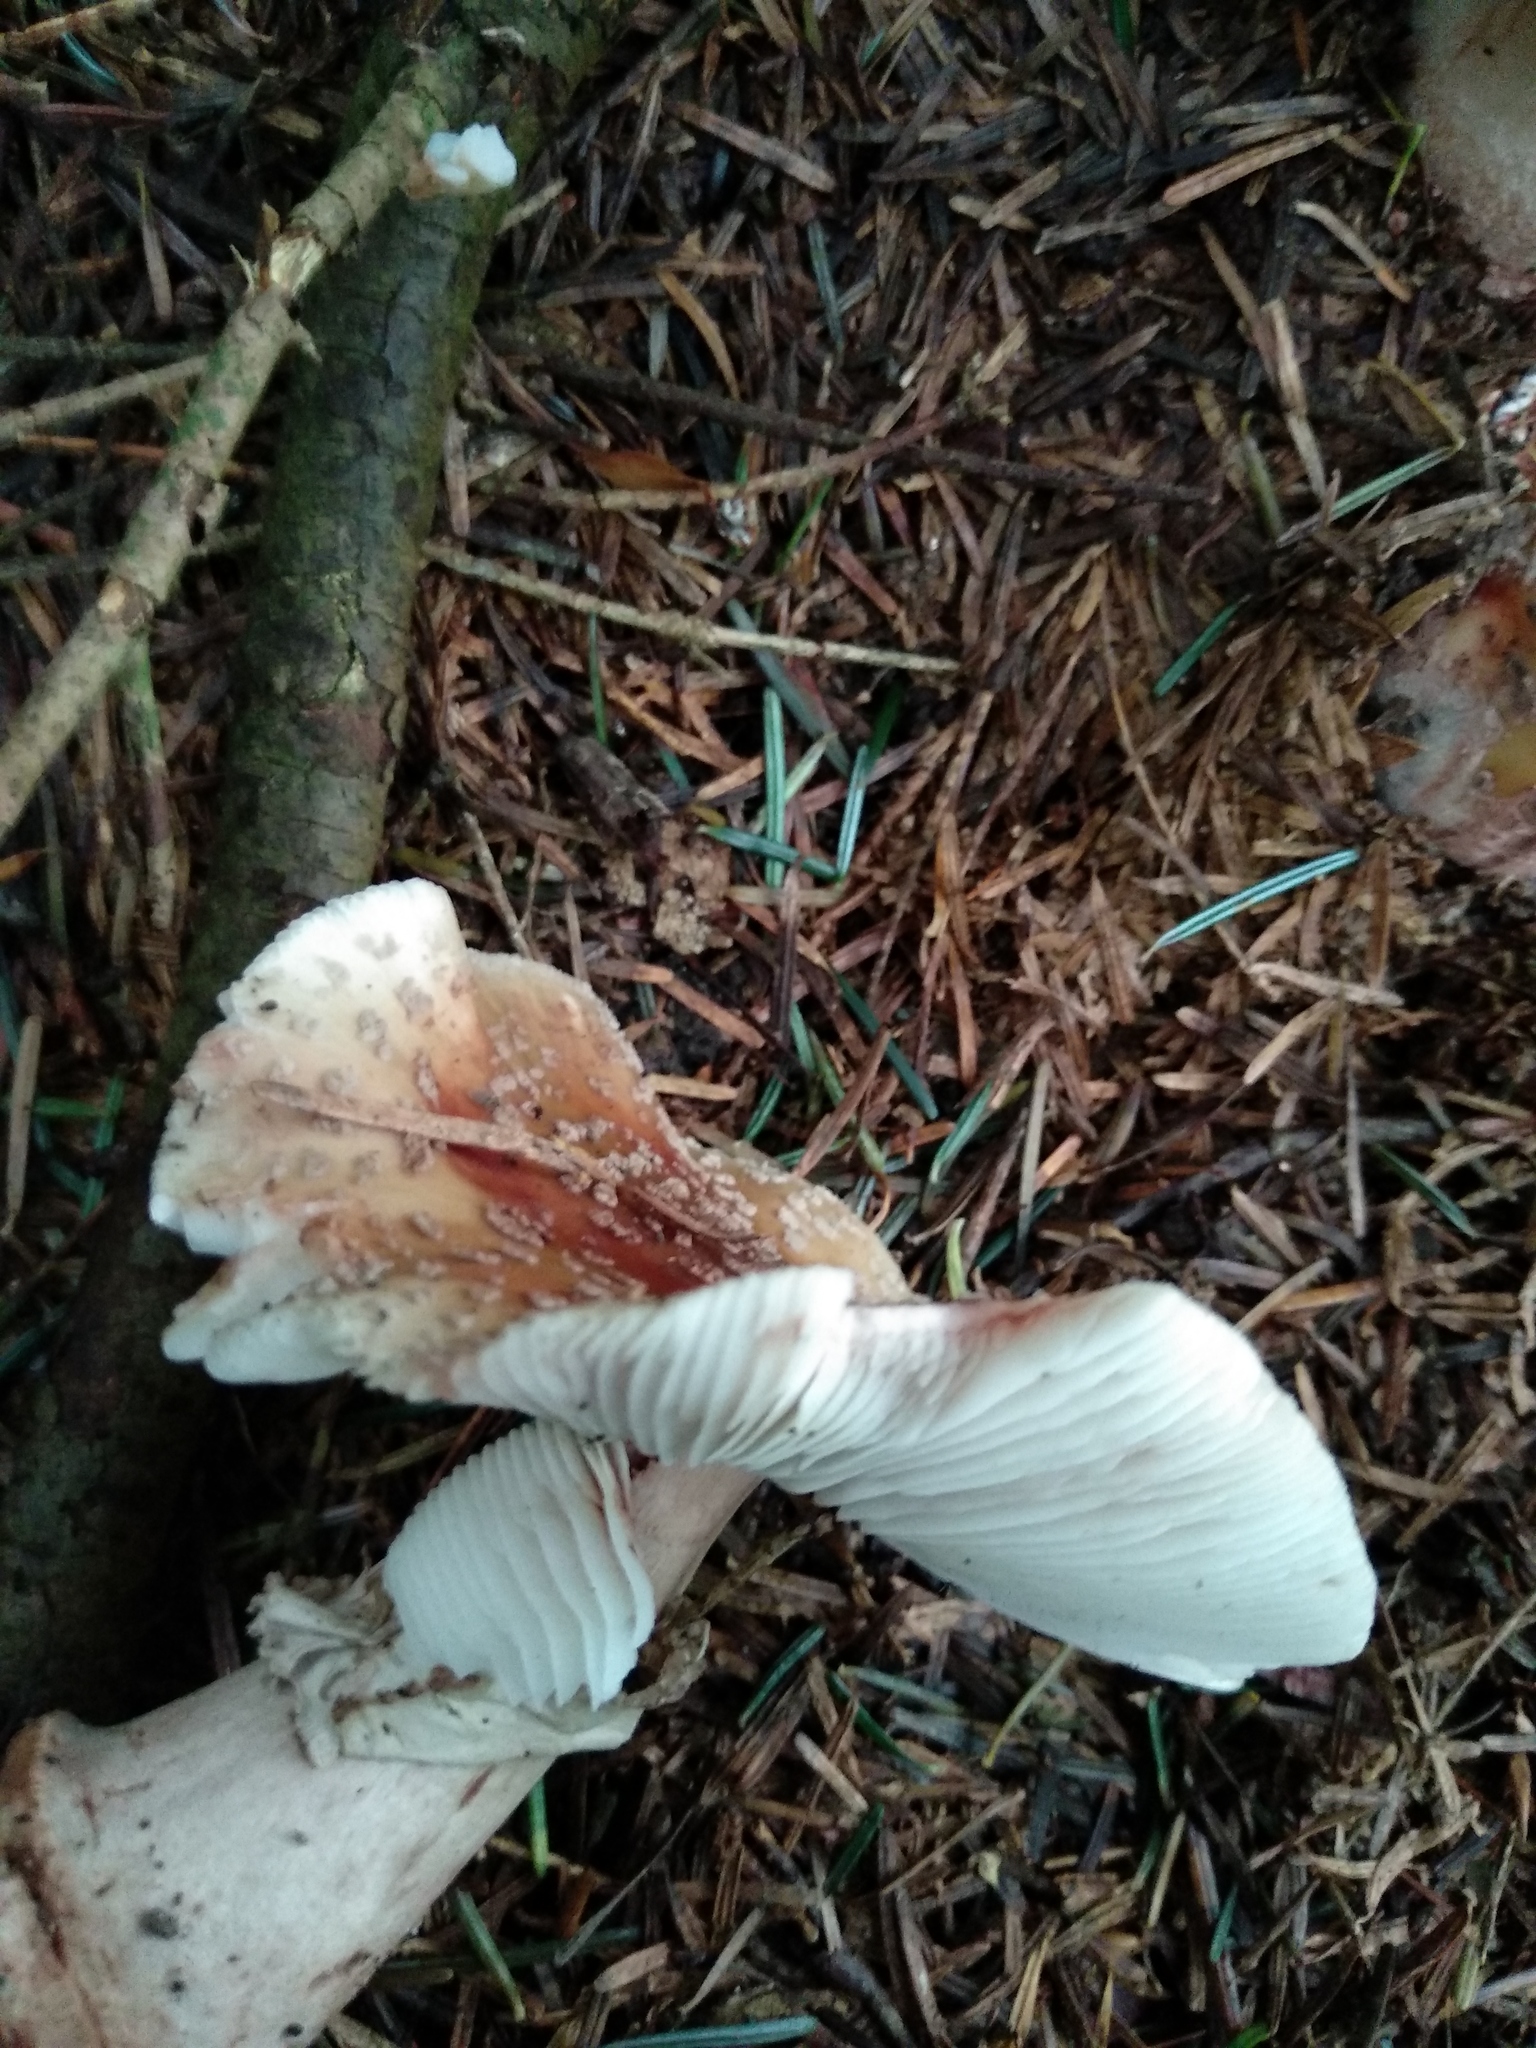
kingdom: Fungi
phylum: Basidiomycota
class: Agaricomycetes
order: Agaricales
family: Amanitaceae
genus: Amanita
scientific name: Amanita rubescens
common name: Blusher
